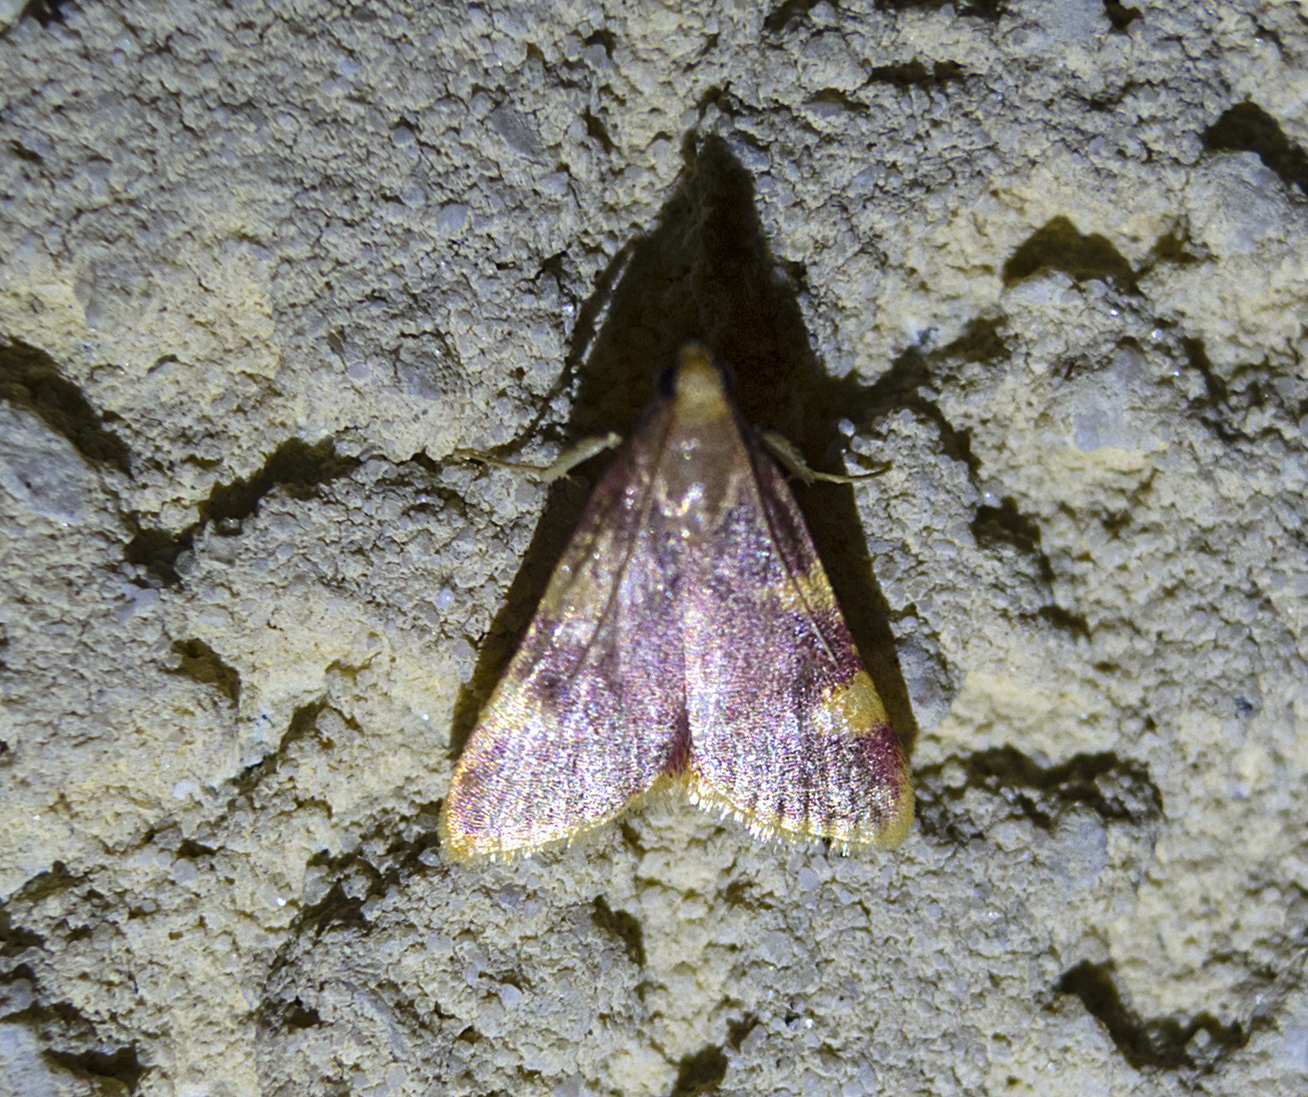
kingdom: Animalia
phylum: Arthropoda
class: Insecta
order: Lepidoptera
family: Pyralidae
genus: Hypsopygia
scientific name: Hypsopygia costalis
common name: Gold triangle
